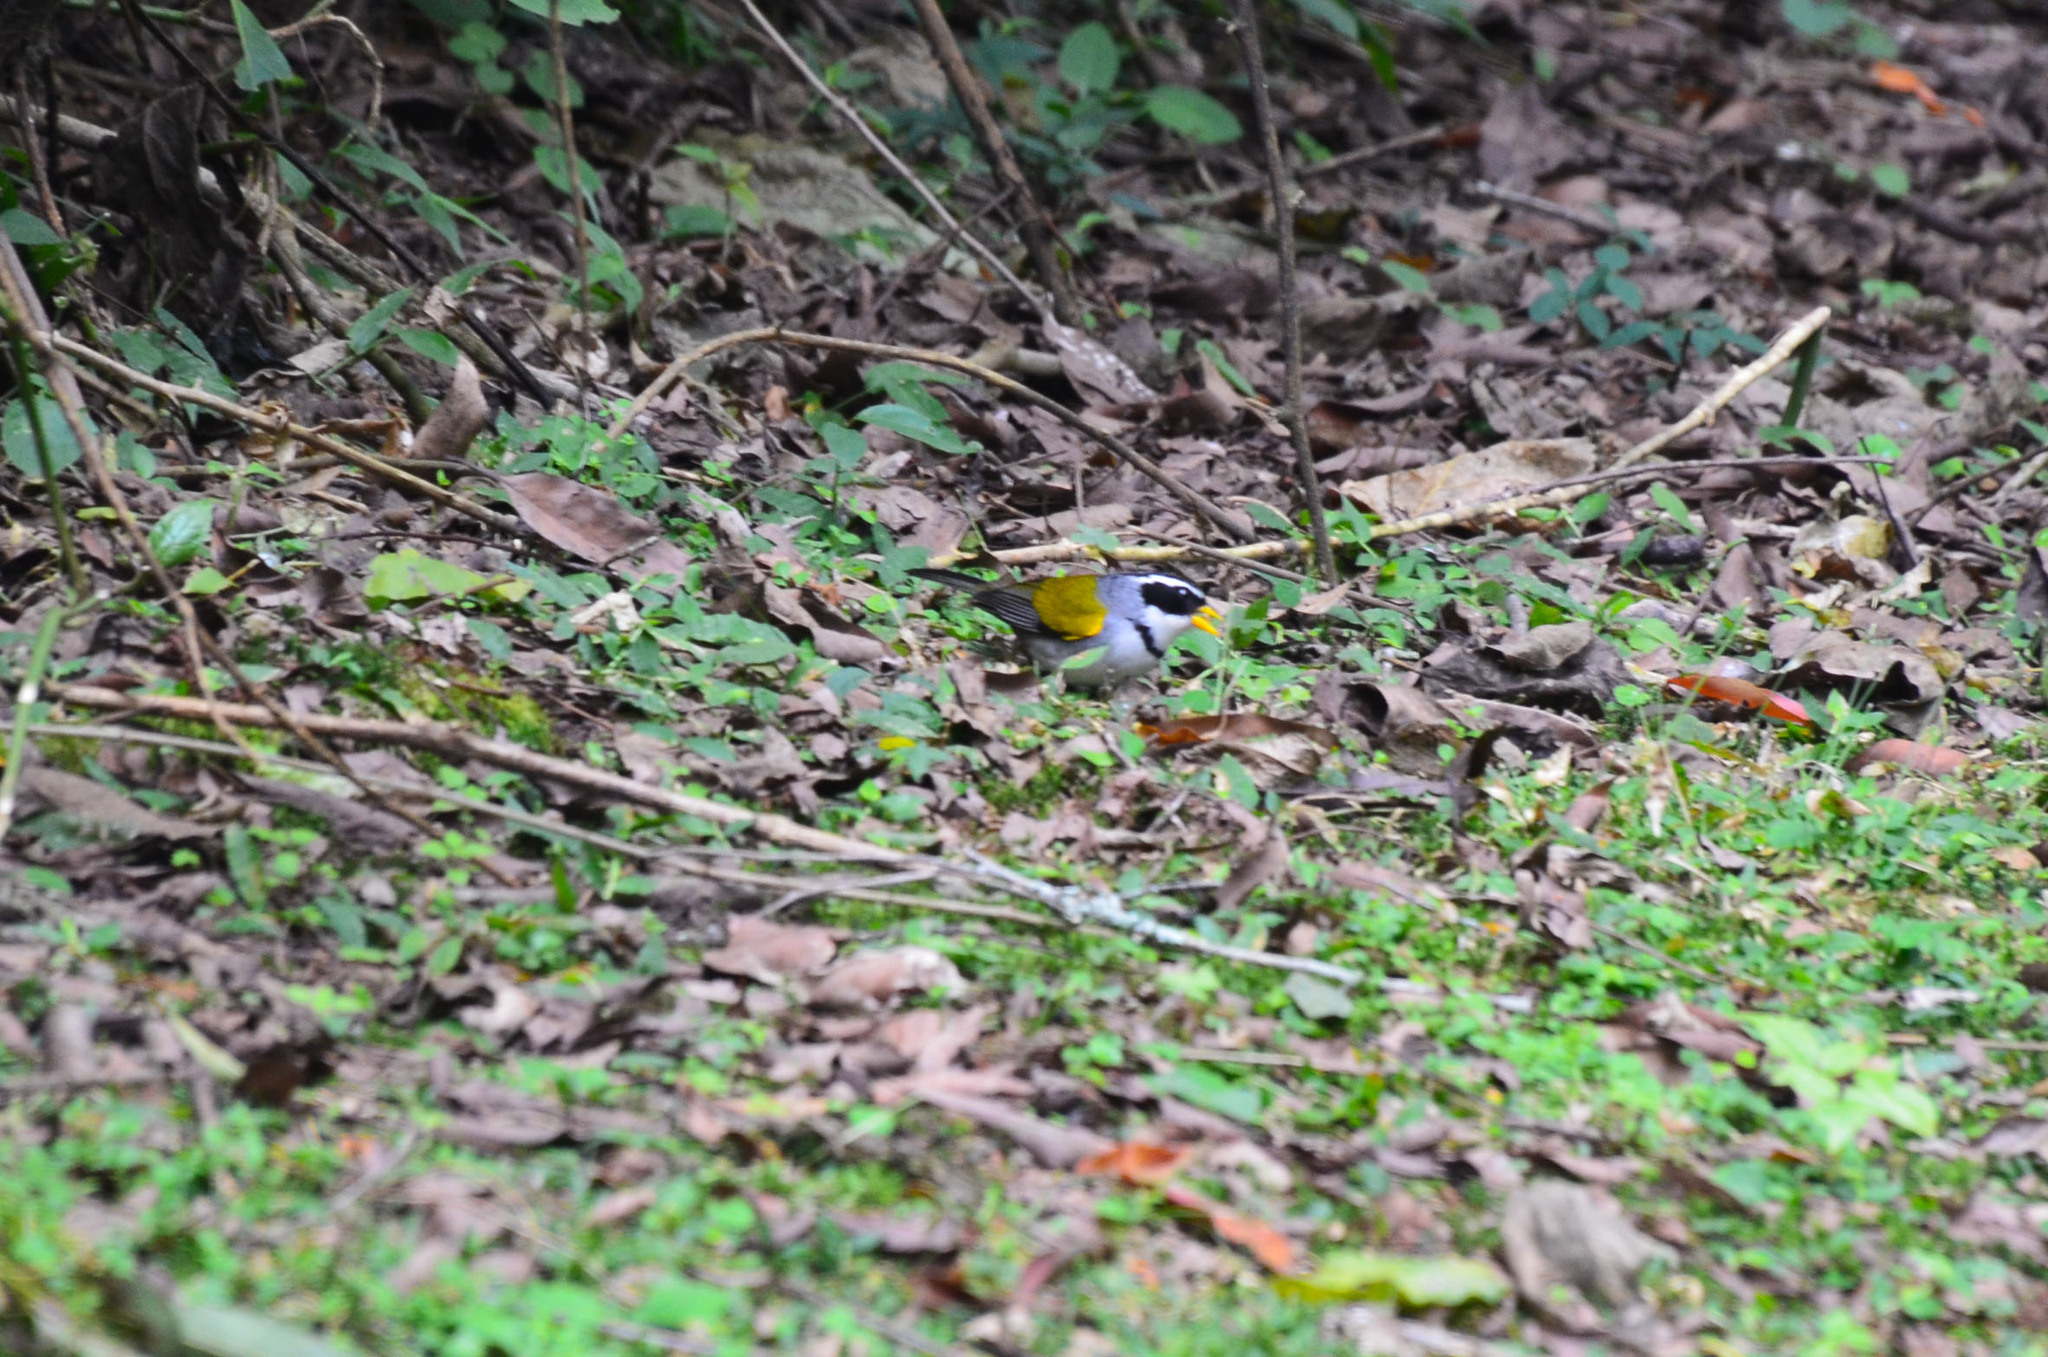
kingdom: Animalia
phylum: Chordata
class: Aves
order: Passeriformes
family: Passerellidae
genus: Arremon
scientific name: Arremon dorbignii
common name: Moss-backed sparrow
